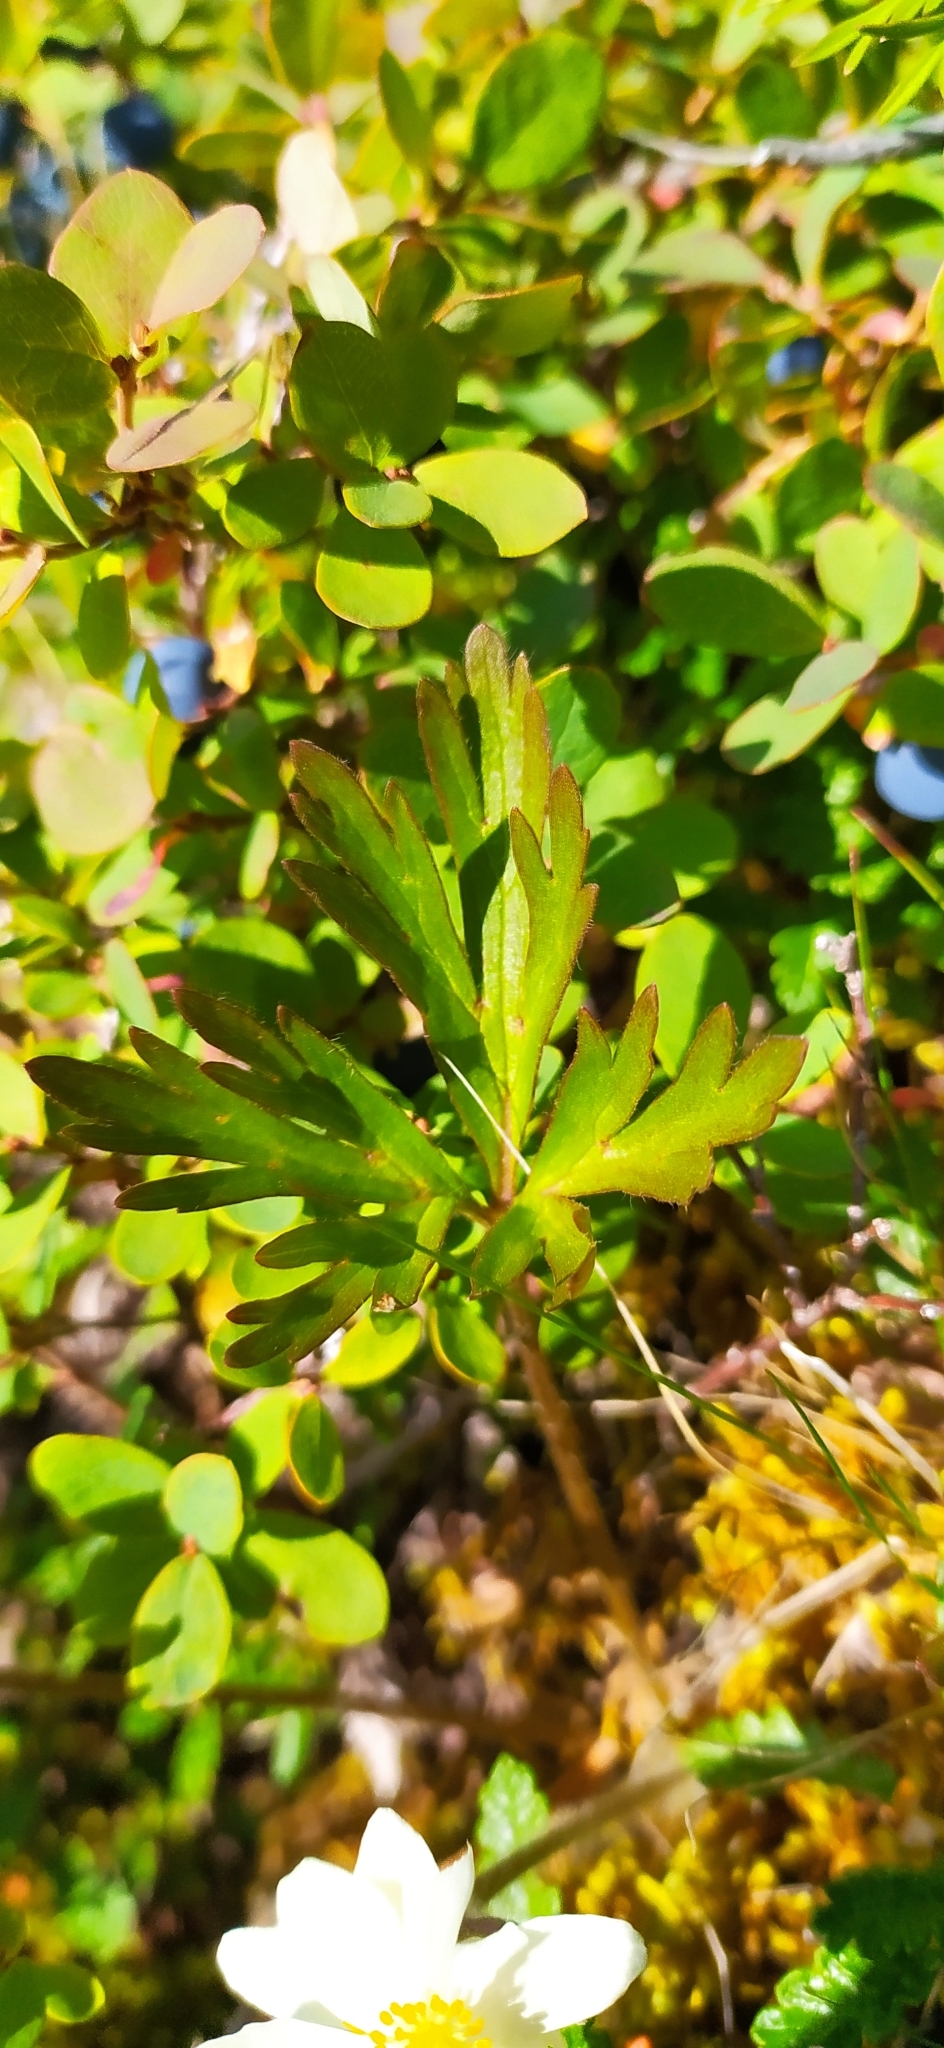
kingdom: Plantae
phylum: Tracheophyta
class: Magnoliopsida
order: Ranunculales
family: Ranunculaceae
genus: Anemonastrum
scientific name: Anemonastrum biarmiense
